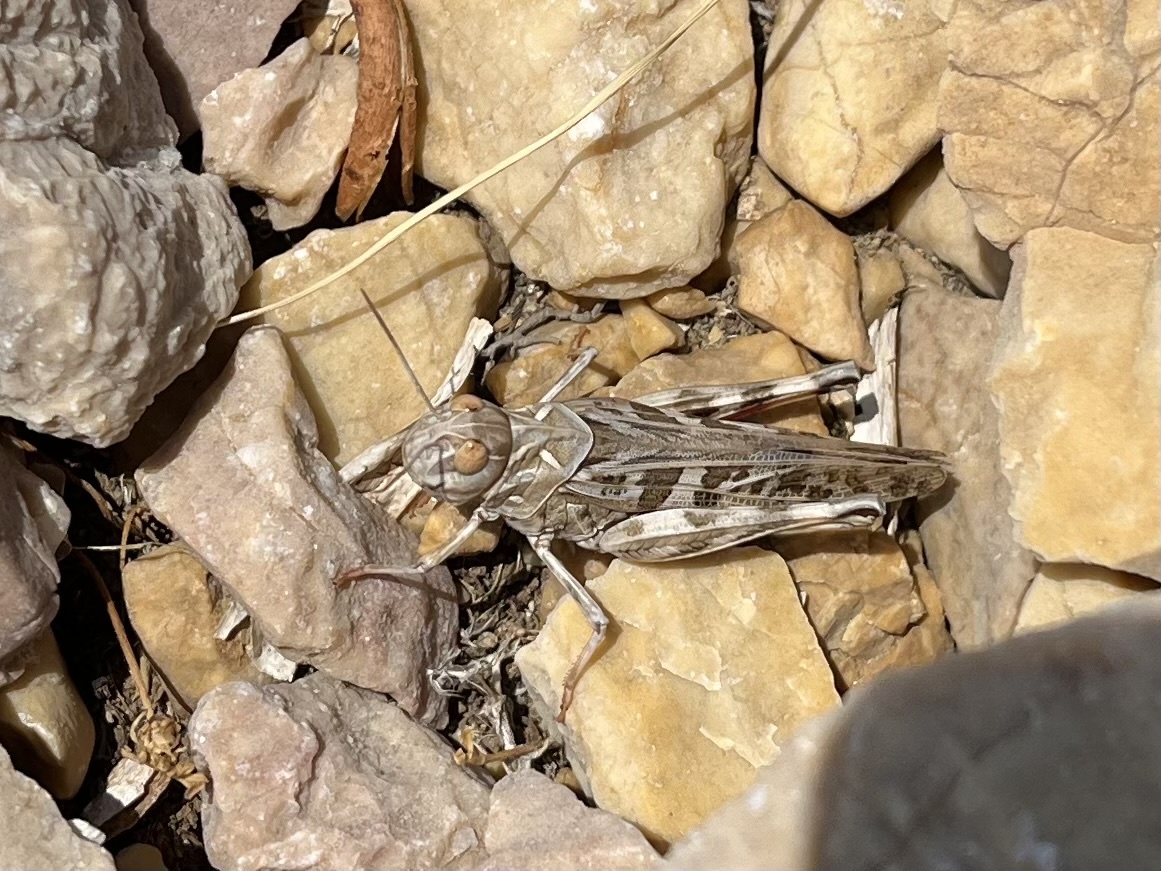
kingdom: Animalia
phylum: Arthropoda
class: Insecta
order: Orthoptera
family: Acrididae
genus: Oedaleus
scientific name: Oedaleus decorus
